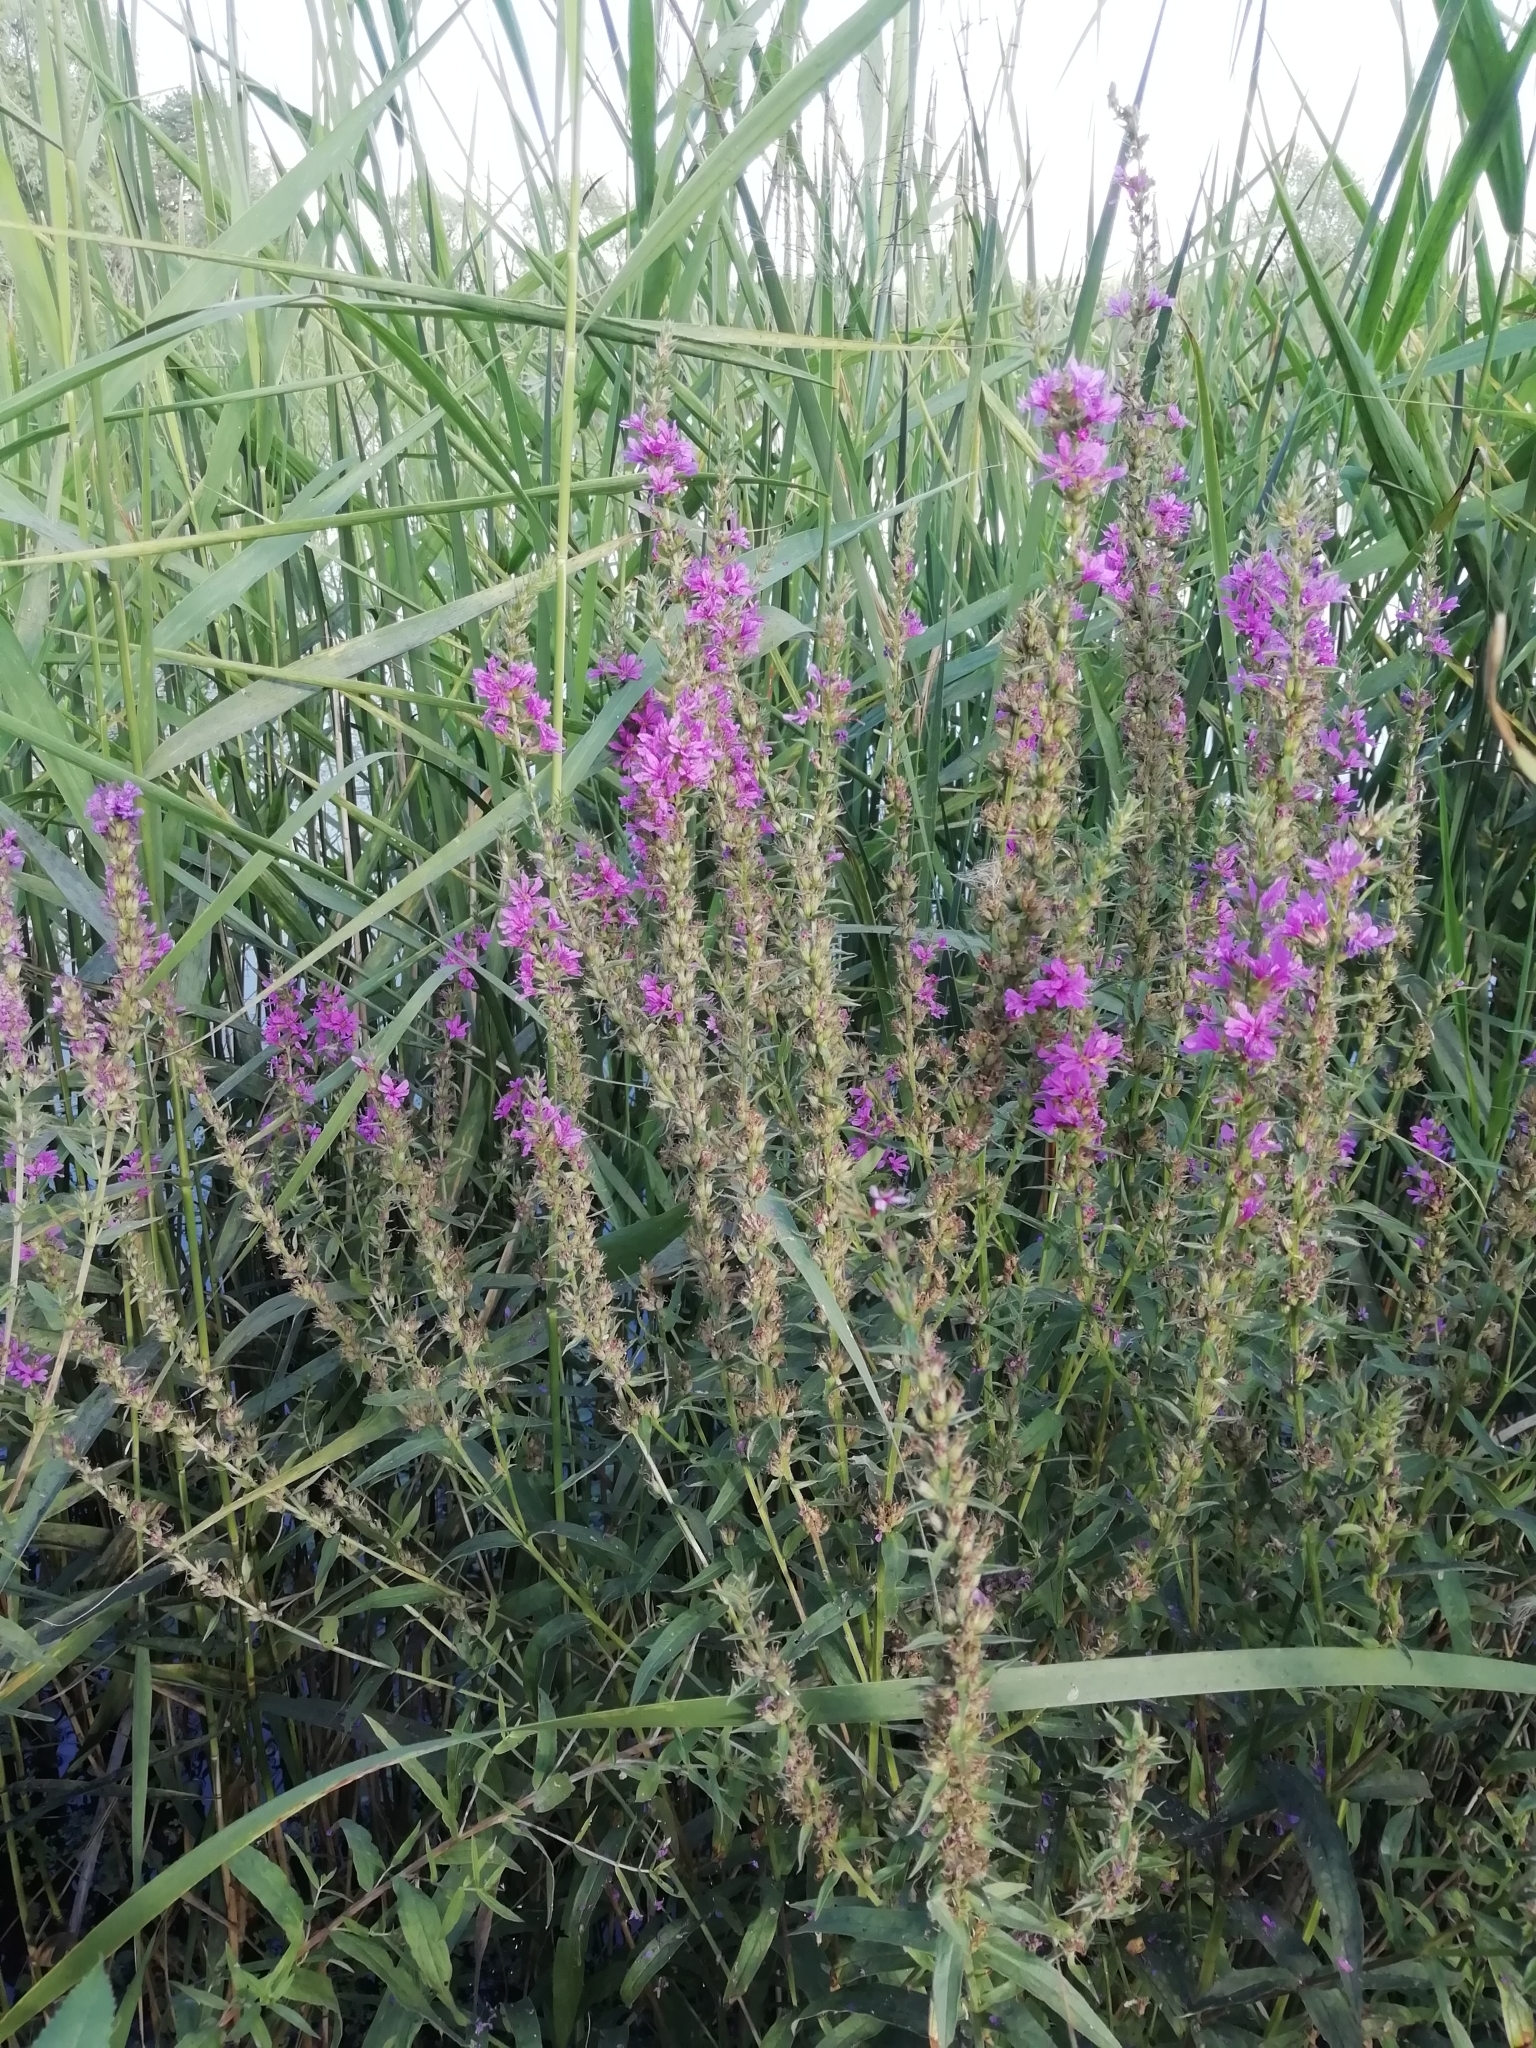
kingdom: Plantae
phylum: Tracheophyta
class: Magnoliopsida
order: Myrtales
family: Lythraceae
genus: Lythrum
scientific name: Lythrum salicaria
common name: Purple loosestrife
